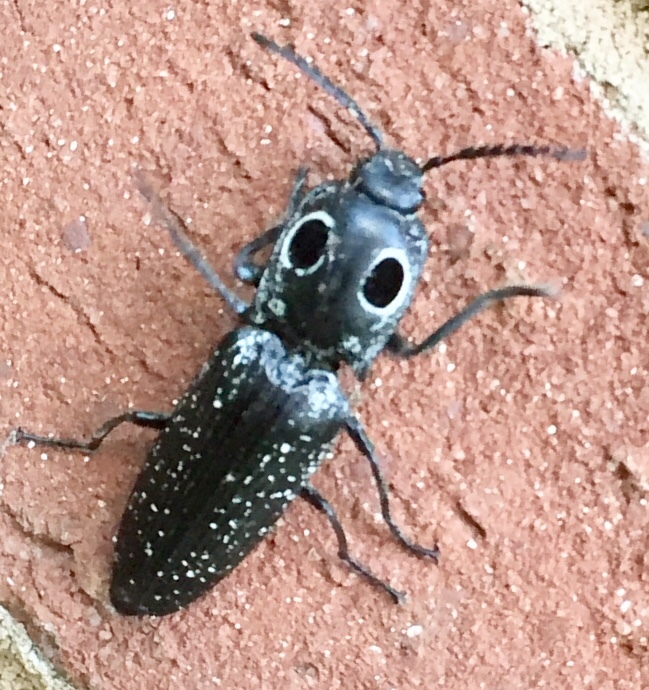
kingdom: Animalia
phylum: Arthropoda
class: Insecta
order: Coleoptera
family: Elateridae
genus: Alaus
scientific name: Alaus oculatus
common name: Eastern eyed click beetle
